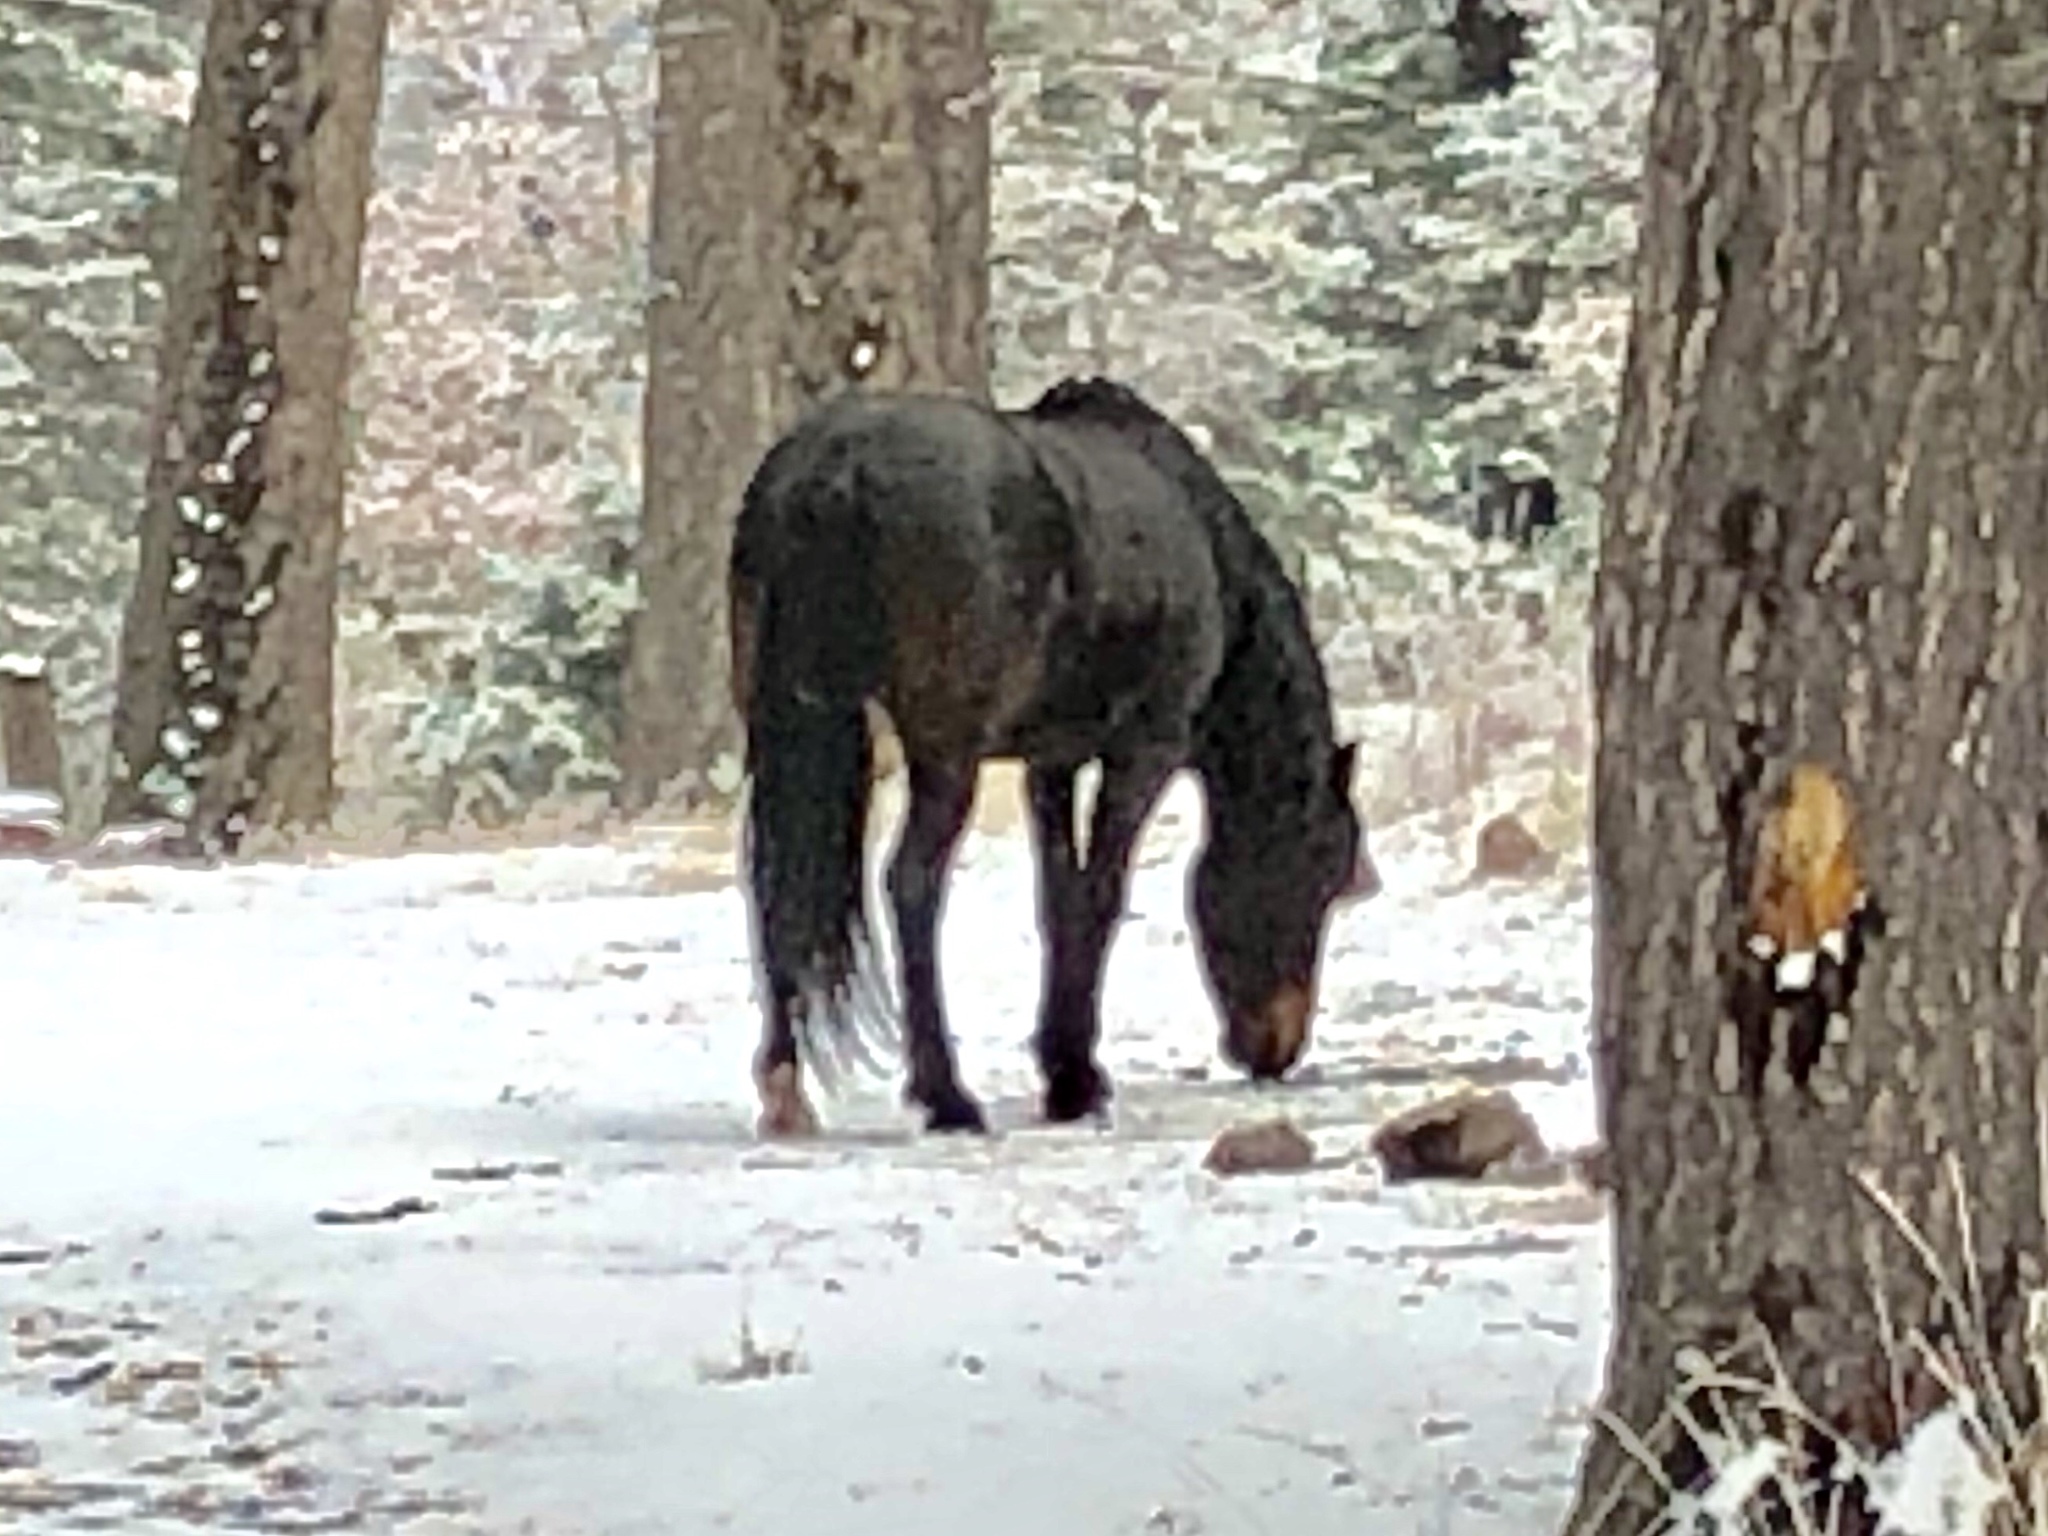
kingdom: Animalia
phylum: Chordata
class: Mammalia
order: Perissodactyla
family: Equidae
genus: Equus
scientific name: Equus caballus
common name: Horse
